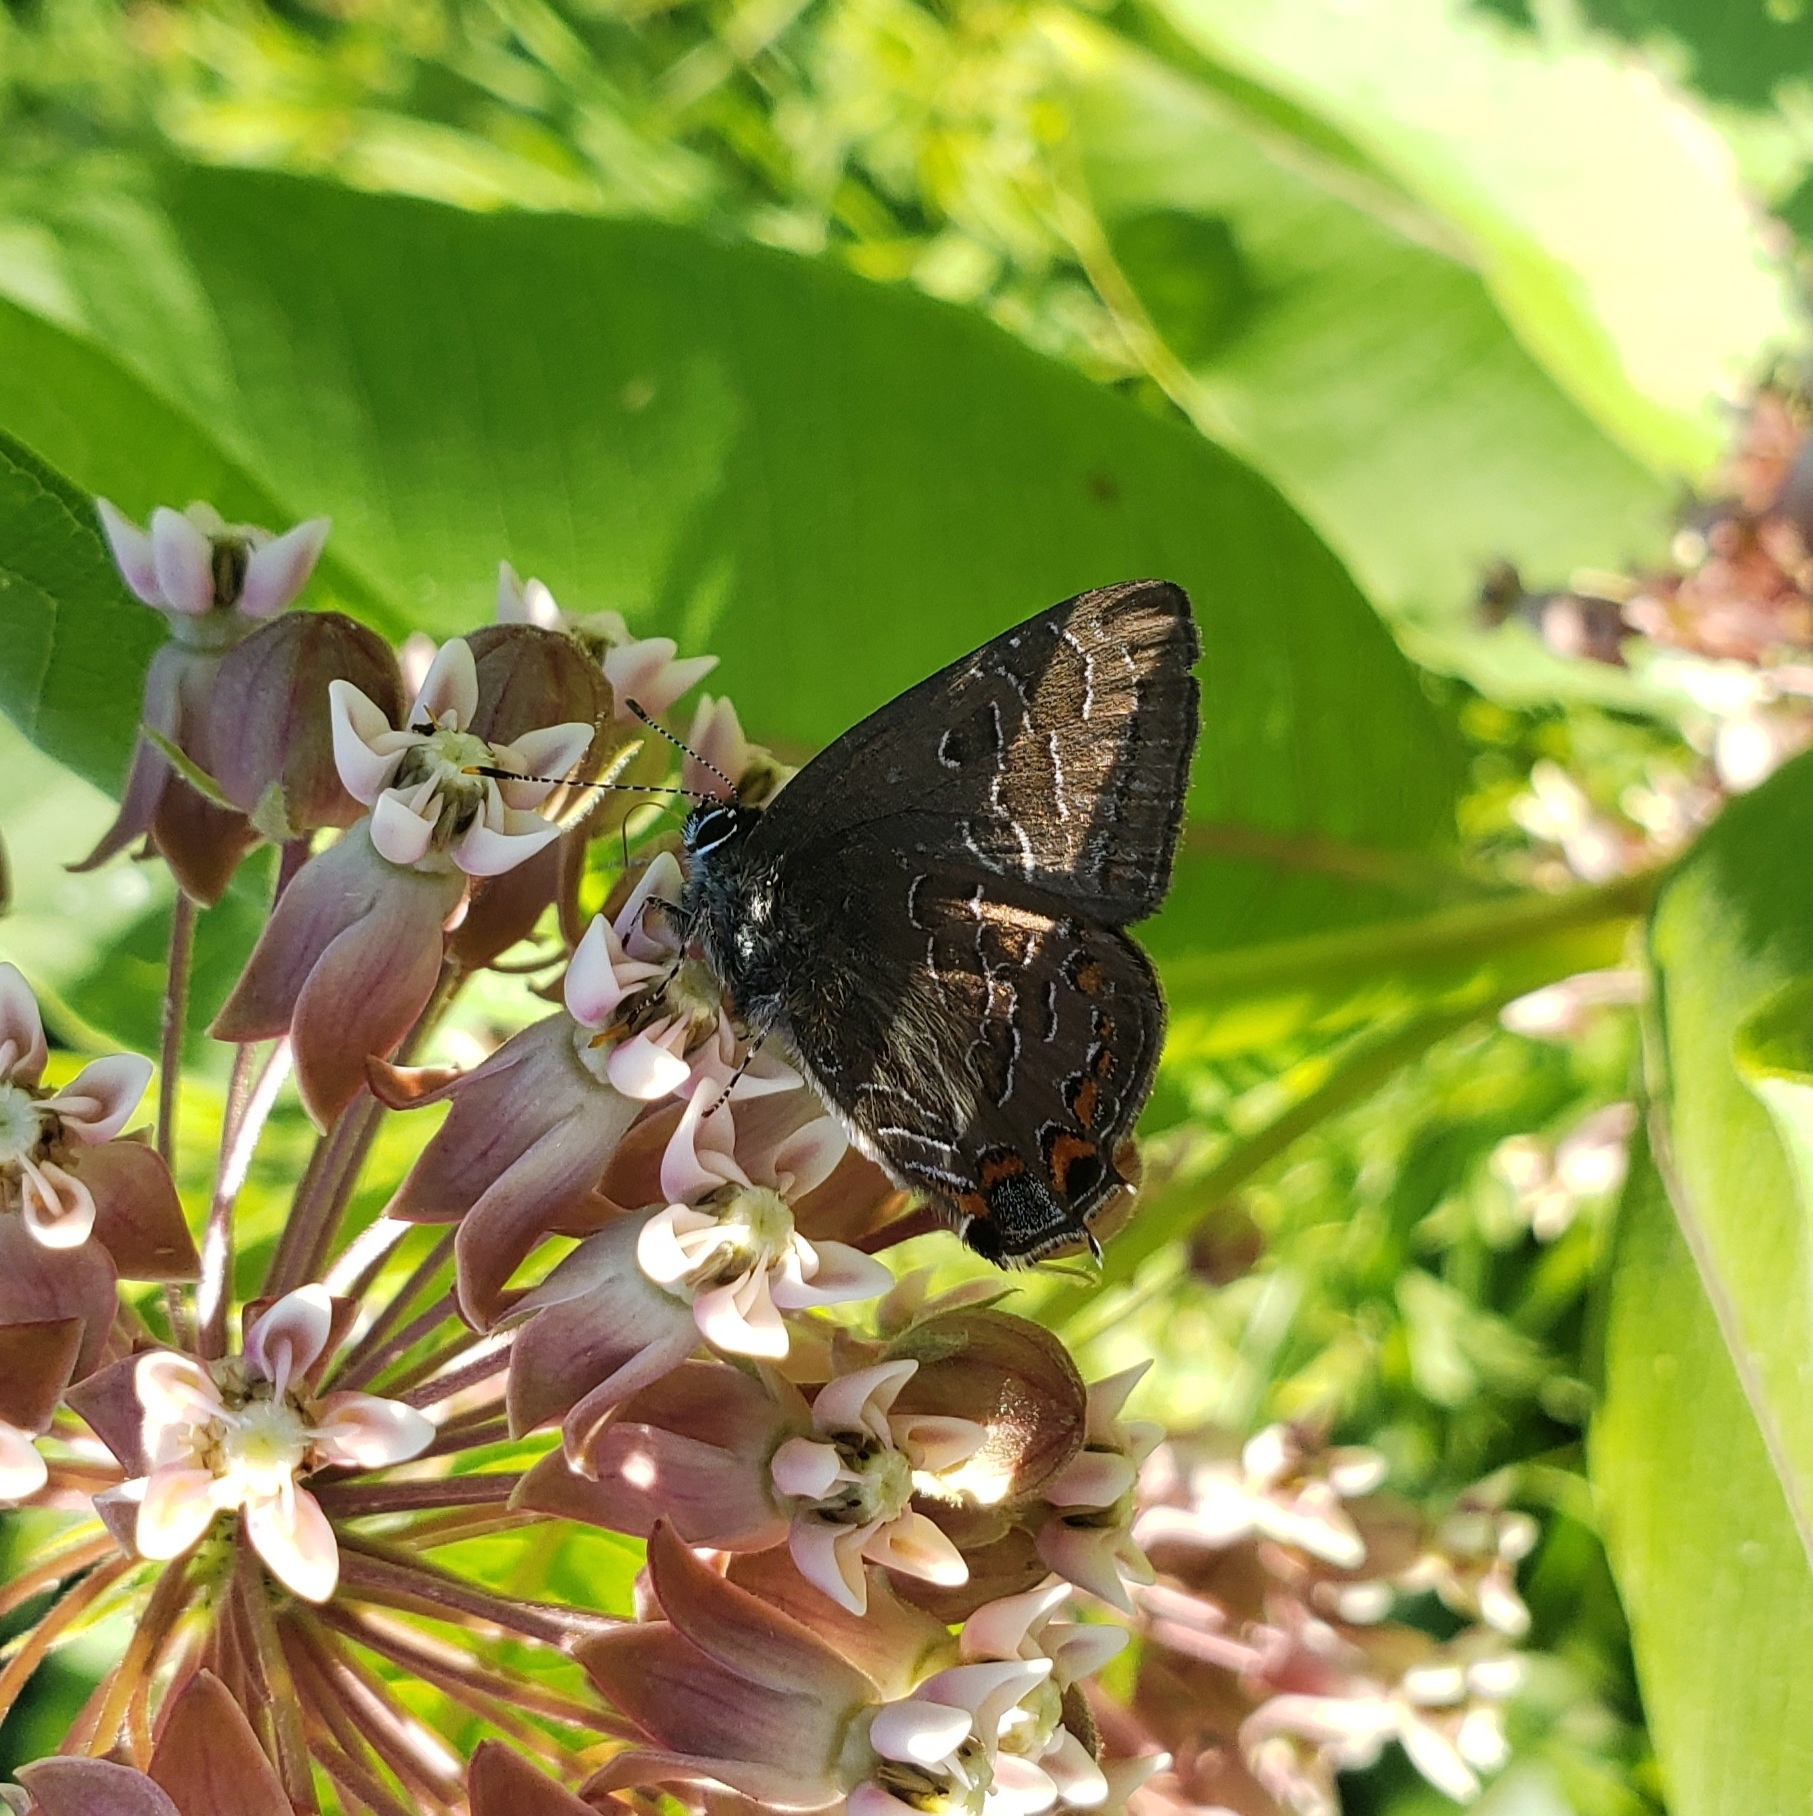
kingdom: Animalia
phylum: Arthropoda
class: Insecta
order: Lepidoptera
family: Lycaenidae
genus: Satyrium
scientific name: Satyrium liparops
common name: Striped hairstreak
